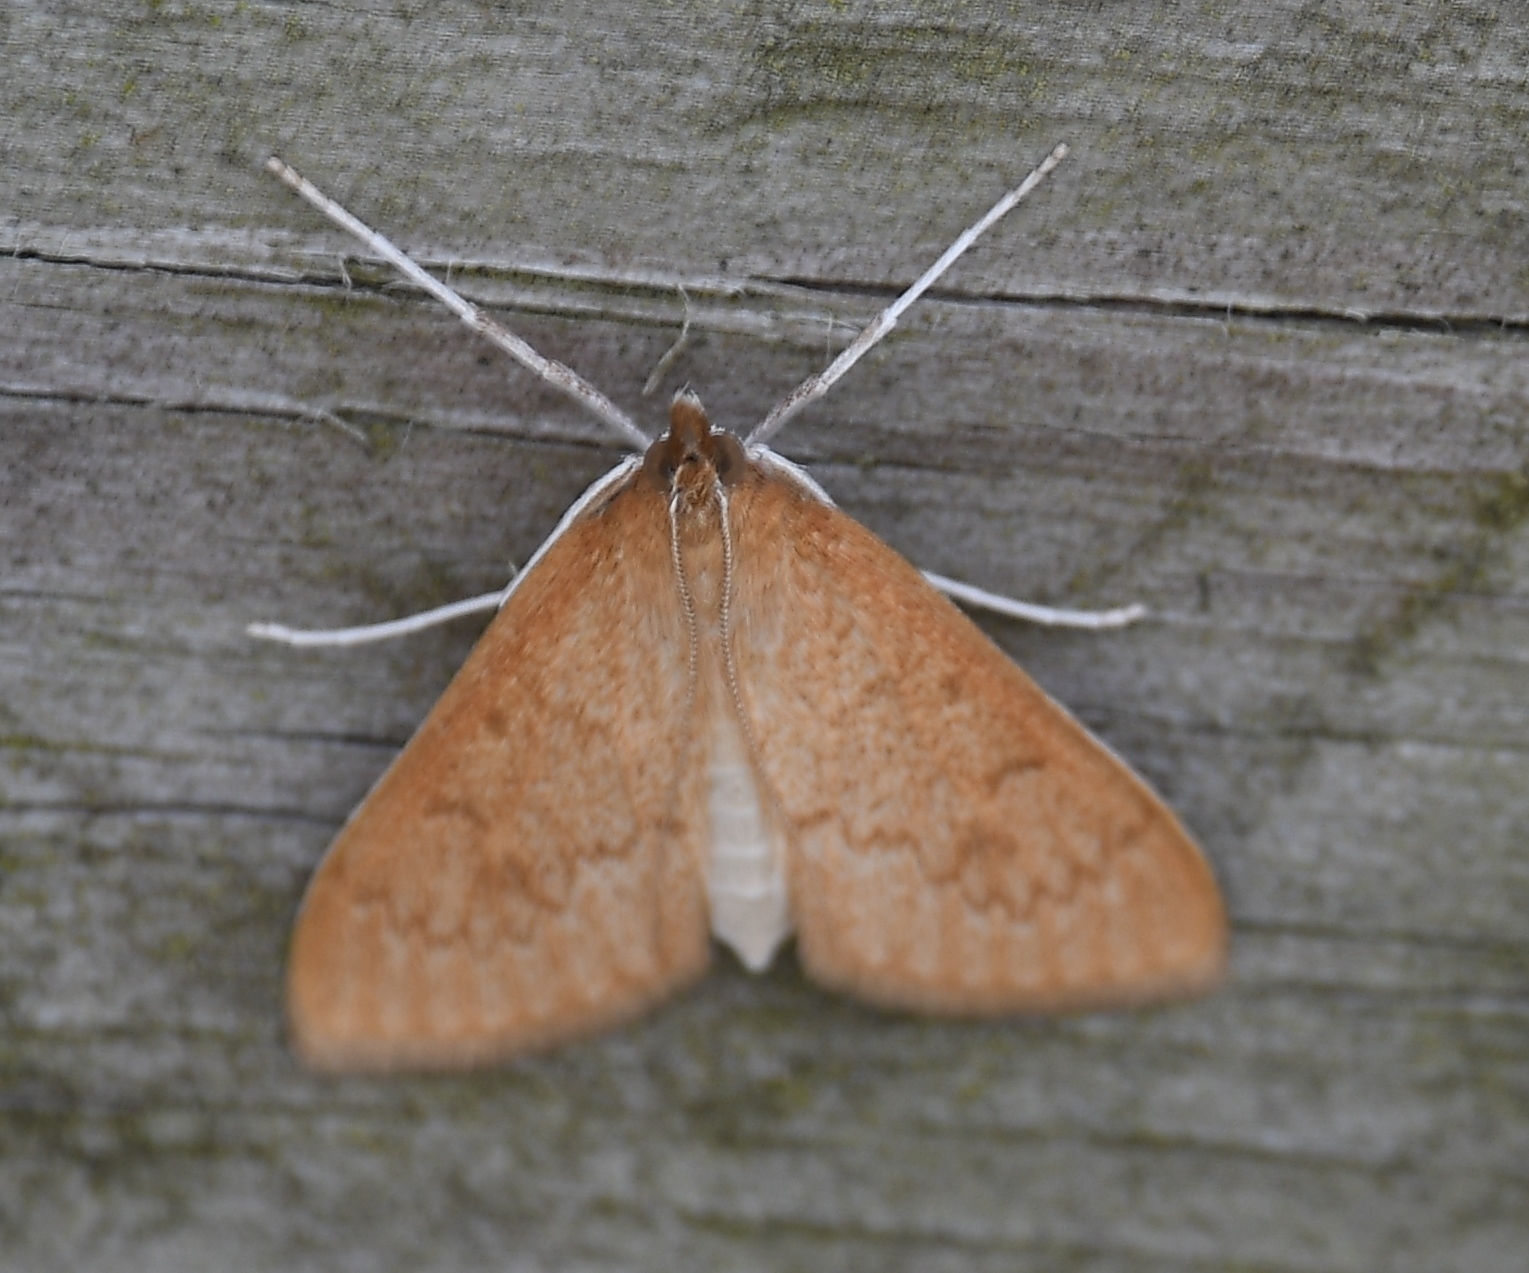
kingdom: Animalia
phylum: Arthropoda
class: Insecta
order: Lepidoptera
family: Crambidae
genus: Saucrobotys
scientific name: Saucrobotys futilalis
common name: Dogbane saucrobotys moth
